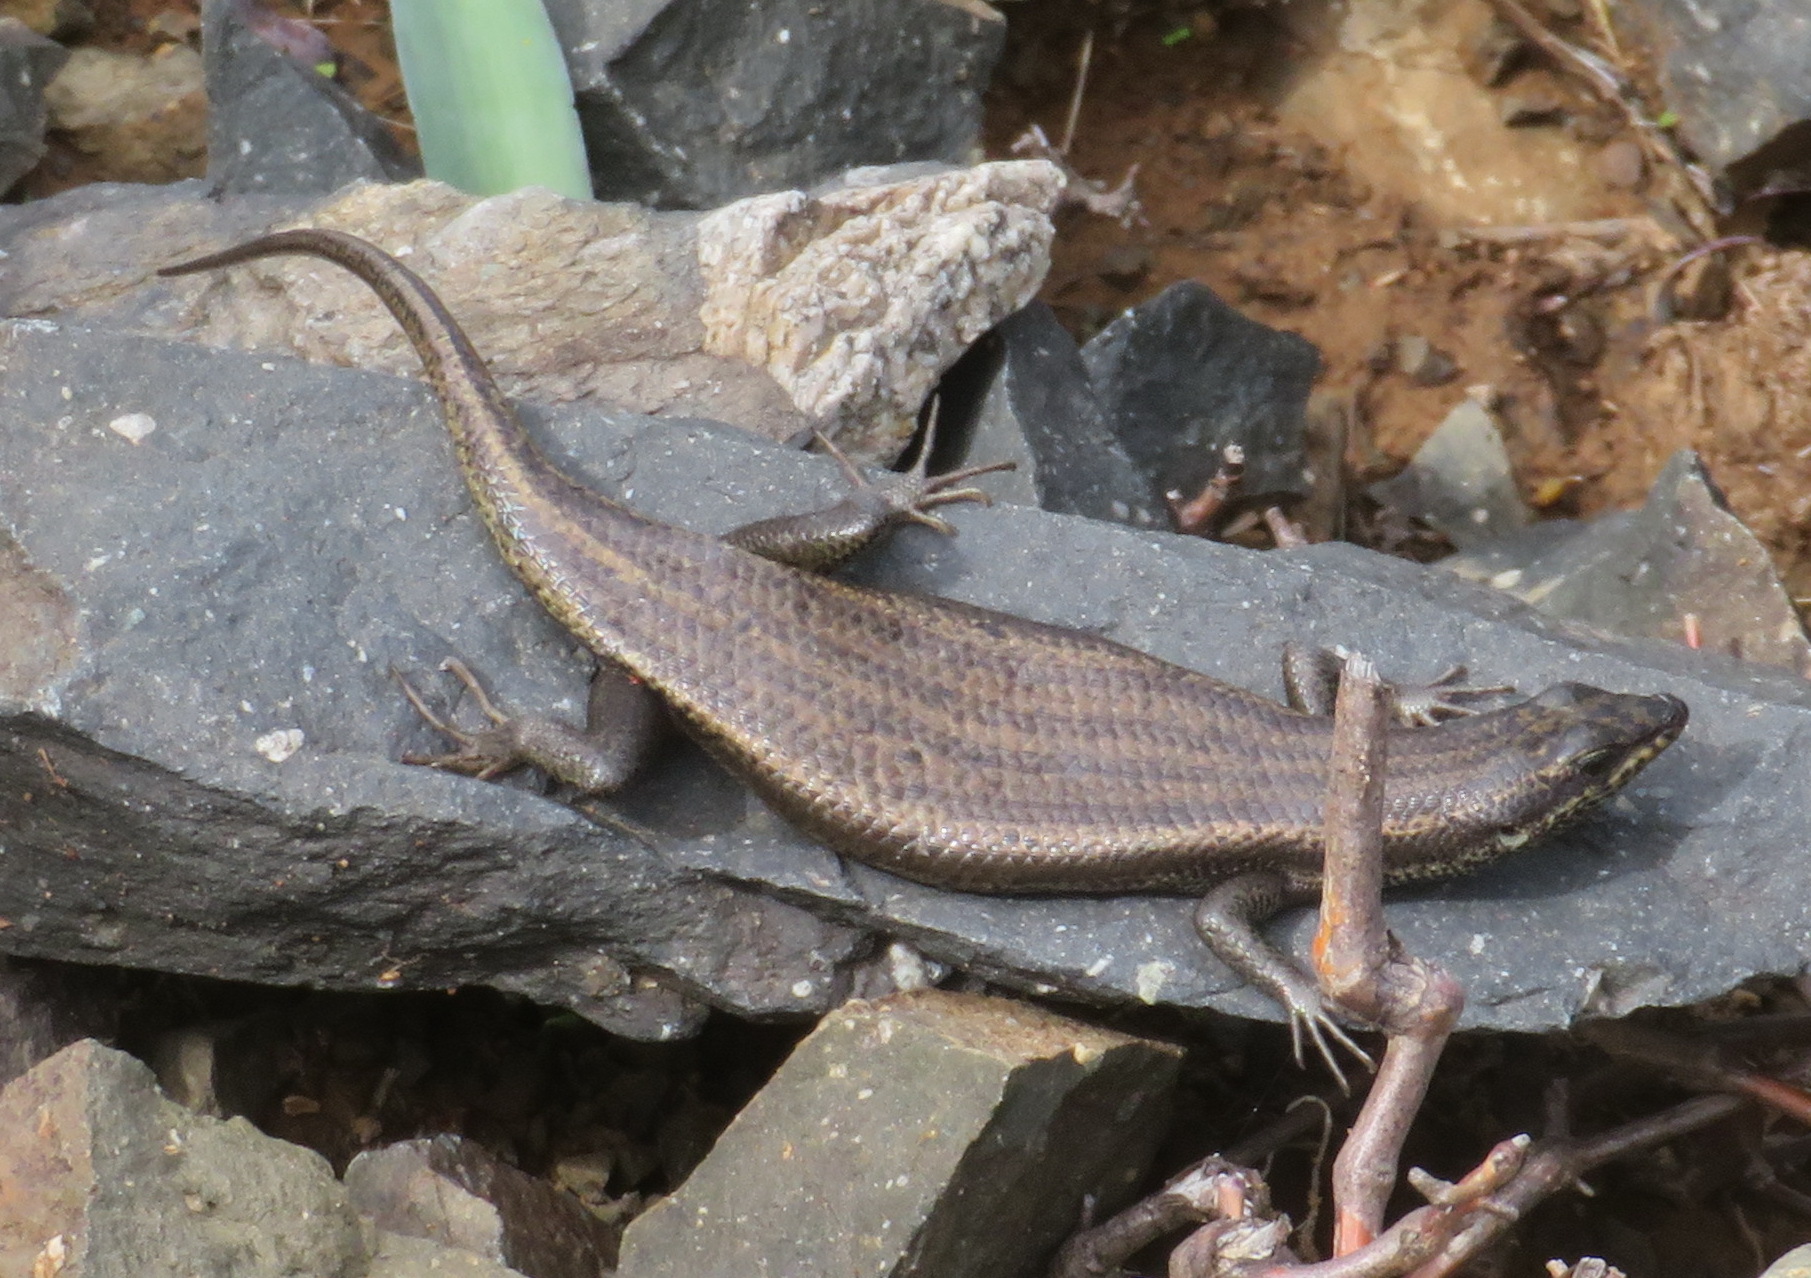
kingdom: Animalia
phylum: Chordata
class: Squamata
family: Scincidae
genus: Trachylepis
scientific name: Trachylepis sulcata
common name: Western rock skink
